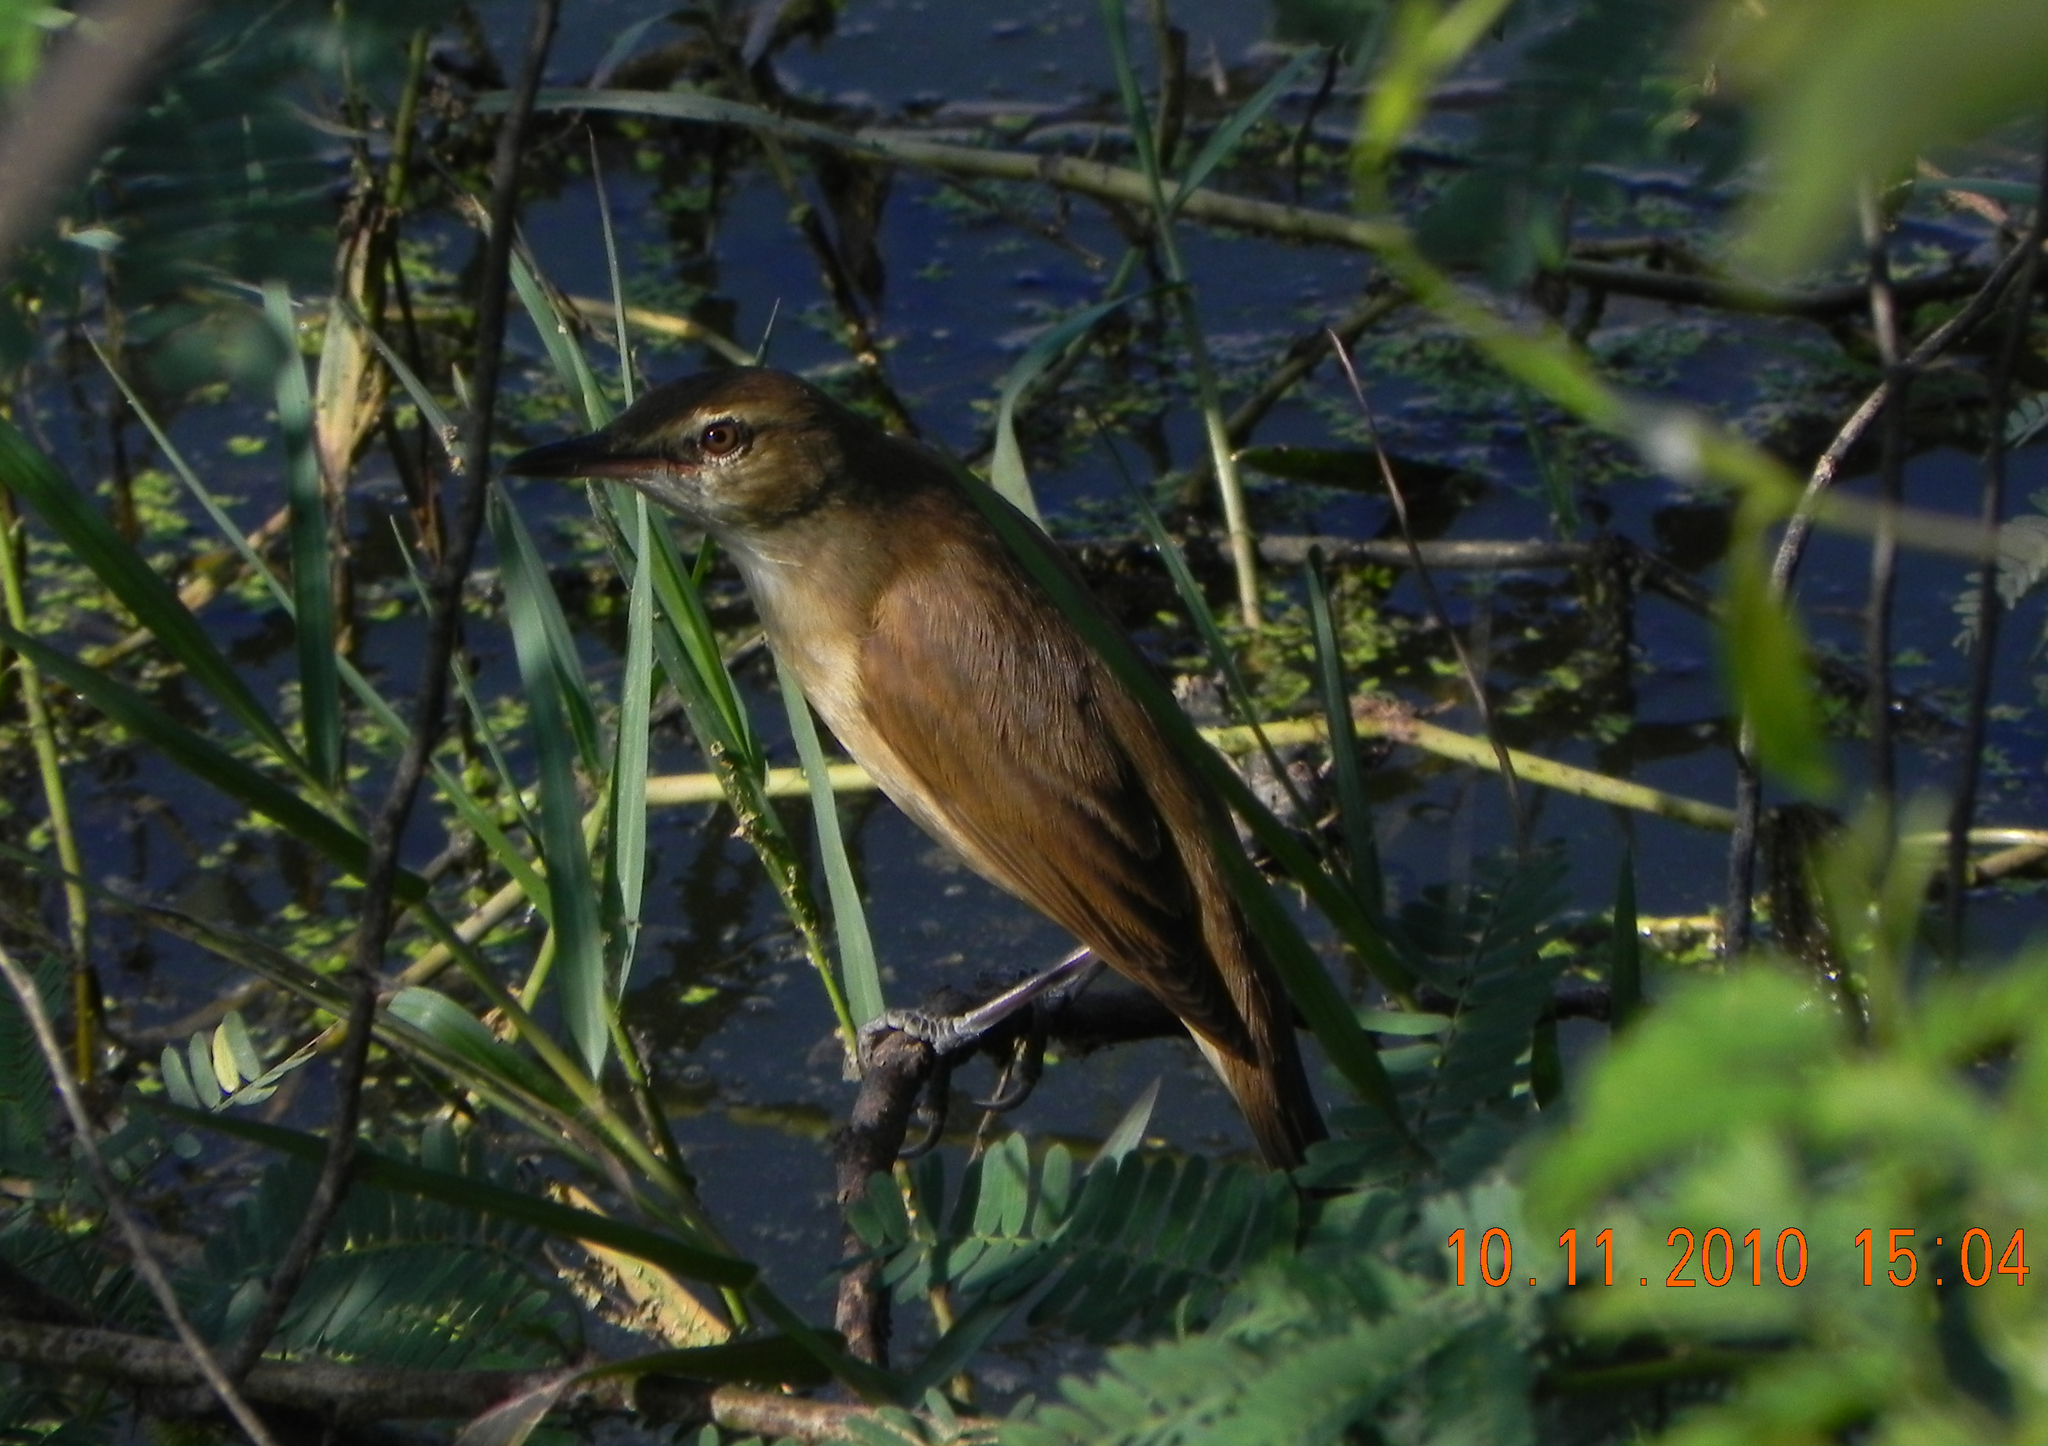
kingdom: Animalia
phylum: Chordata
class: Aves
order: Passeriformes
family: Acrocephalidae
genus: Acrocephalus
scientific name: Acrocephalus stentoreus
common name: Clamorous reed warbler
